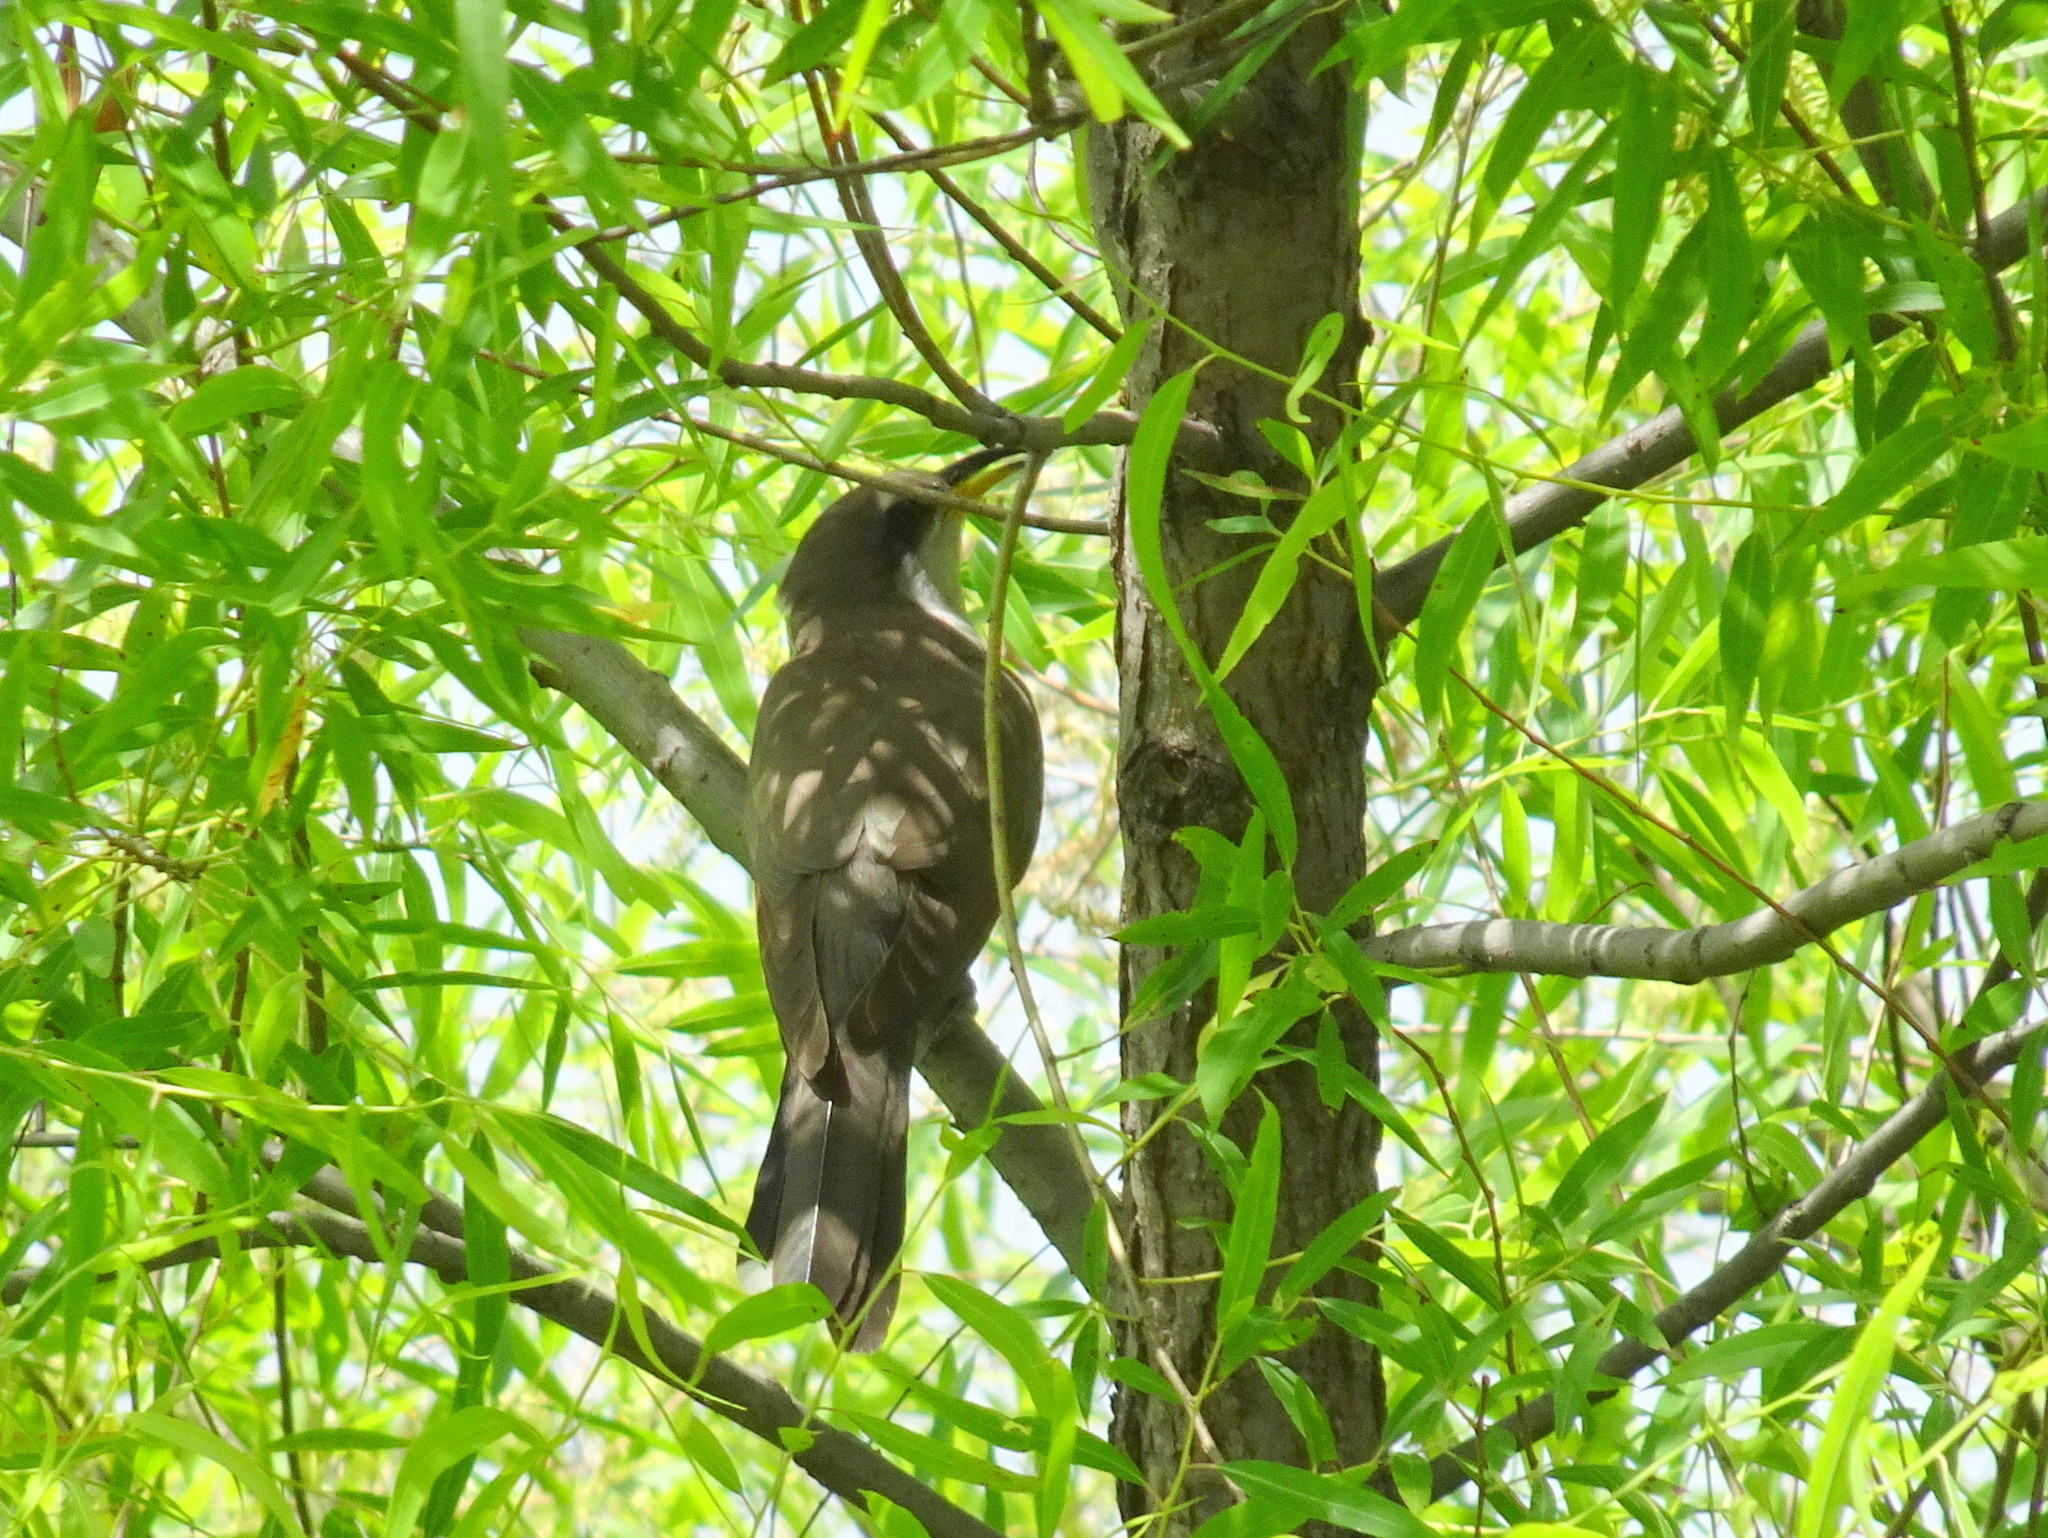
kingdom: Animalia
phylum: Chordata
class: Aves
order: Cuculiformes
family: Cuculidae
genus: Coccyzus
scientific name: Coccyzus americanus
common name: Yellow-billed cuckoo
